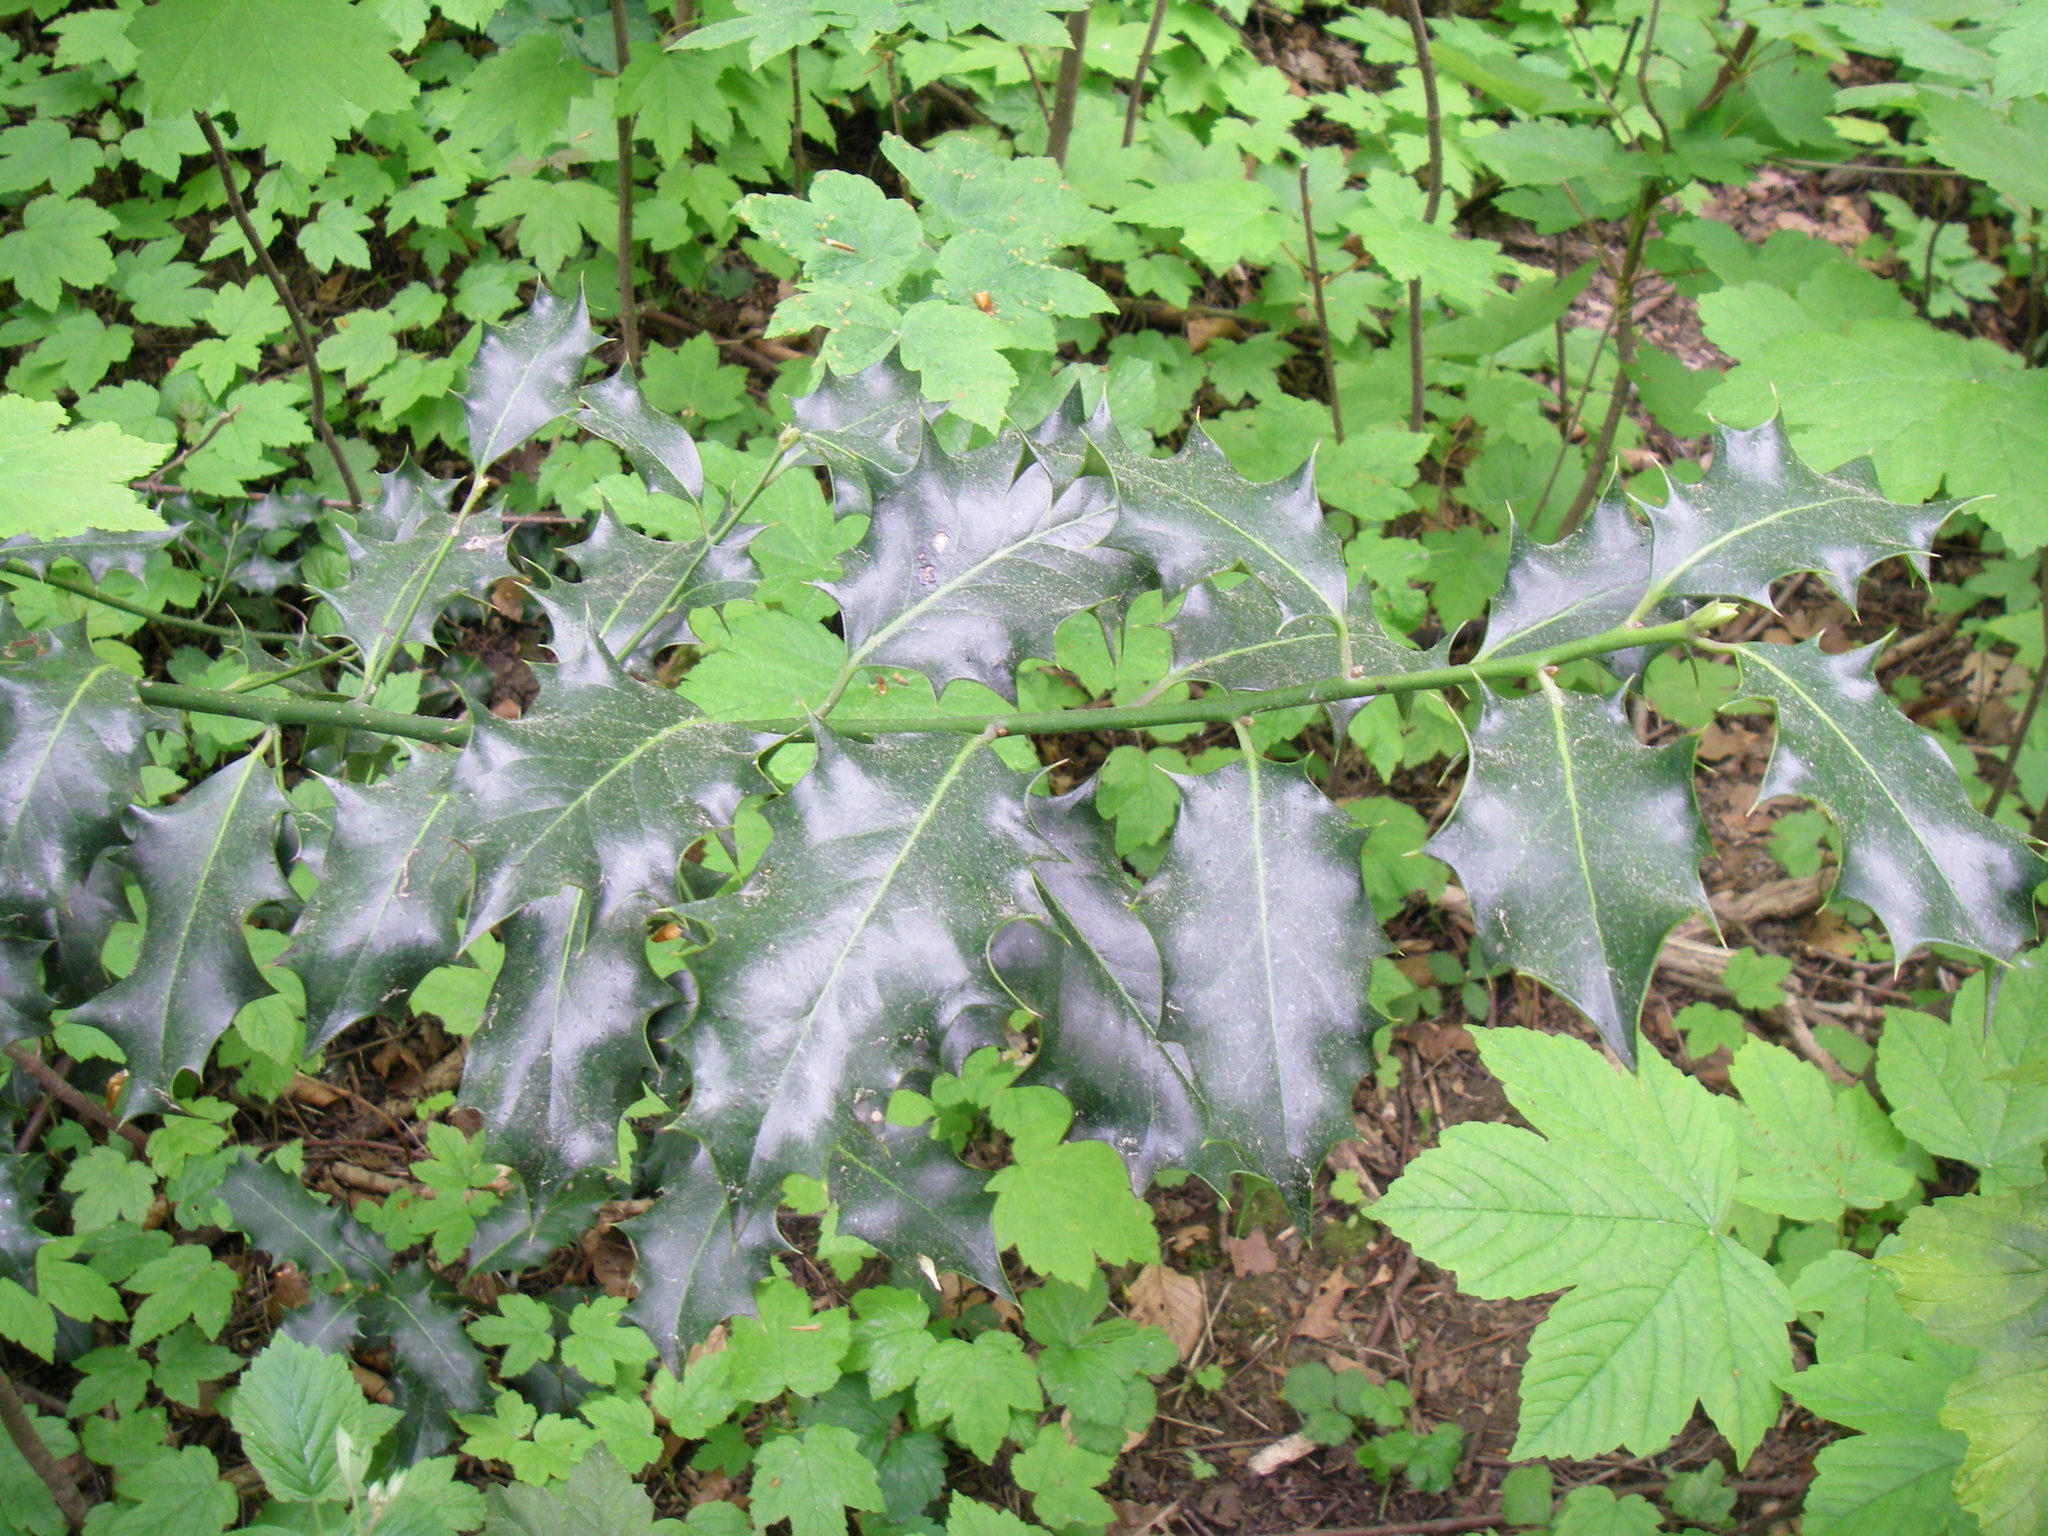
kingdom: Plantae
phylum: Tracheophyta
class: Magnoliopsida
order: Aquifoliales
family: Aquifoliaceae
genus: Ilex
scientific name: Ilex aquifolium
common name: English holly
